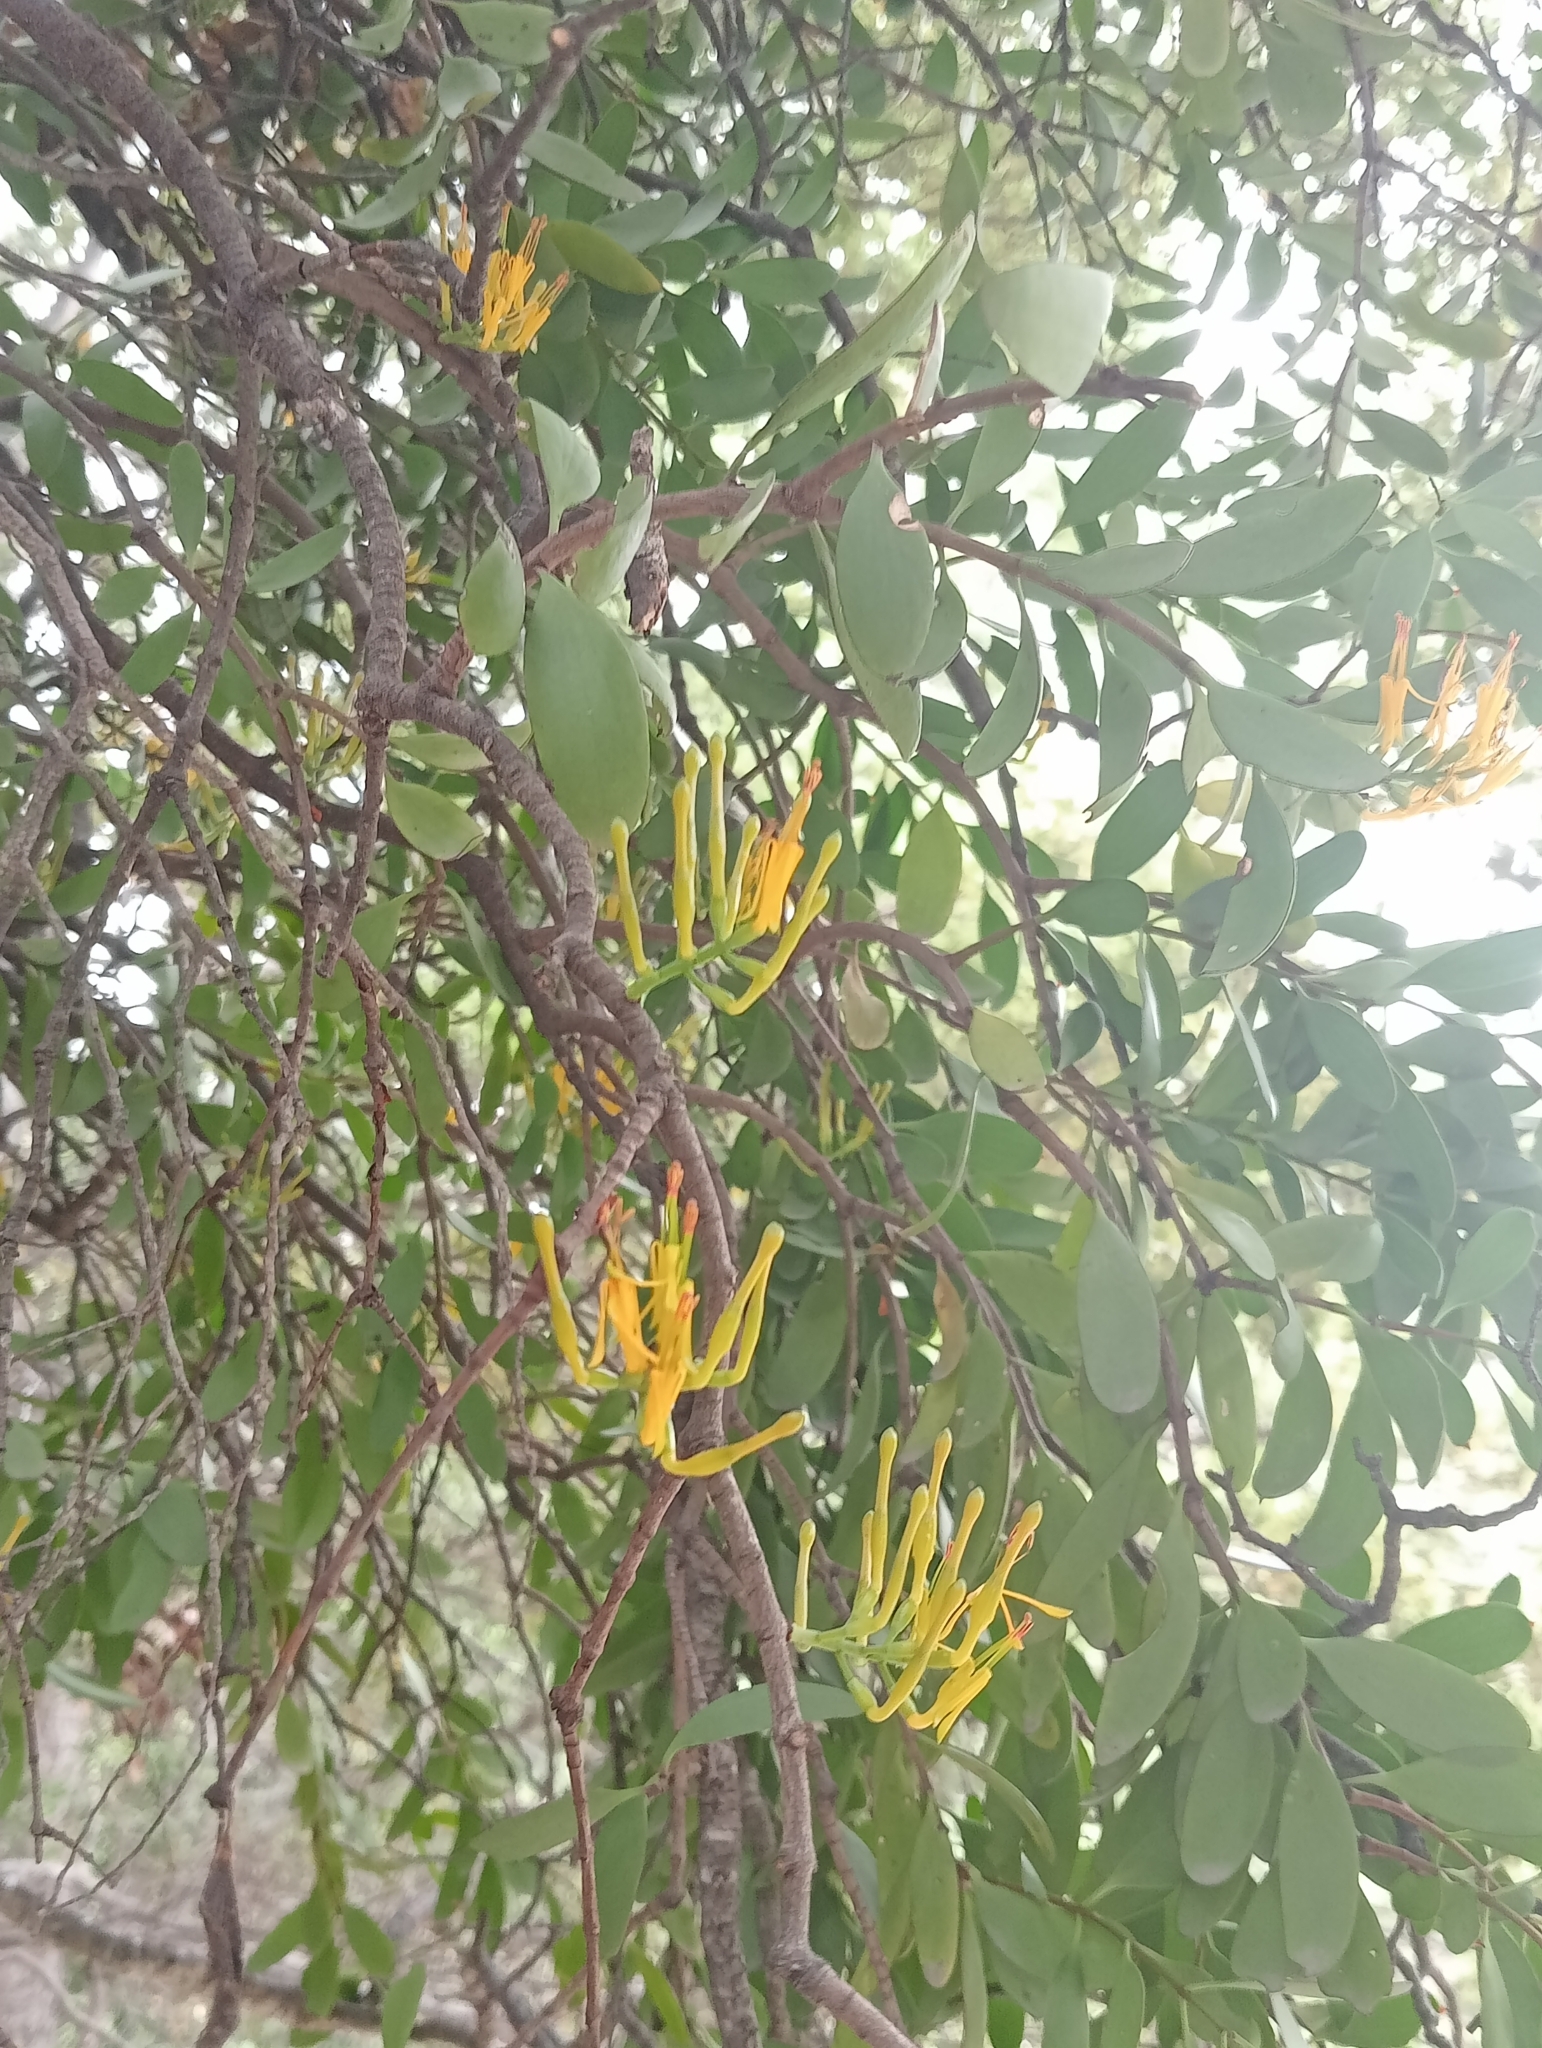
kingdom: Plantae
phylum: Tracheophyta
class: Magnoliopsida
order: Santalales
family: Loranthaceae
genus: Alepis
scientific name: Alepis flavida
